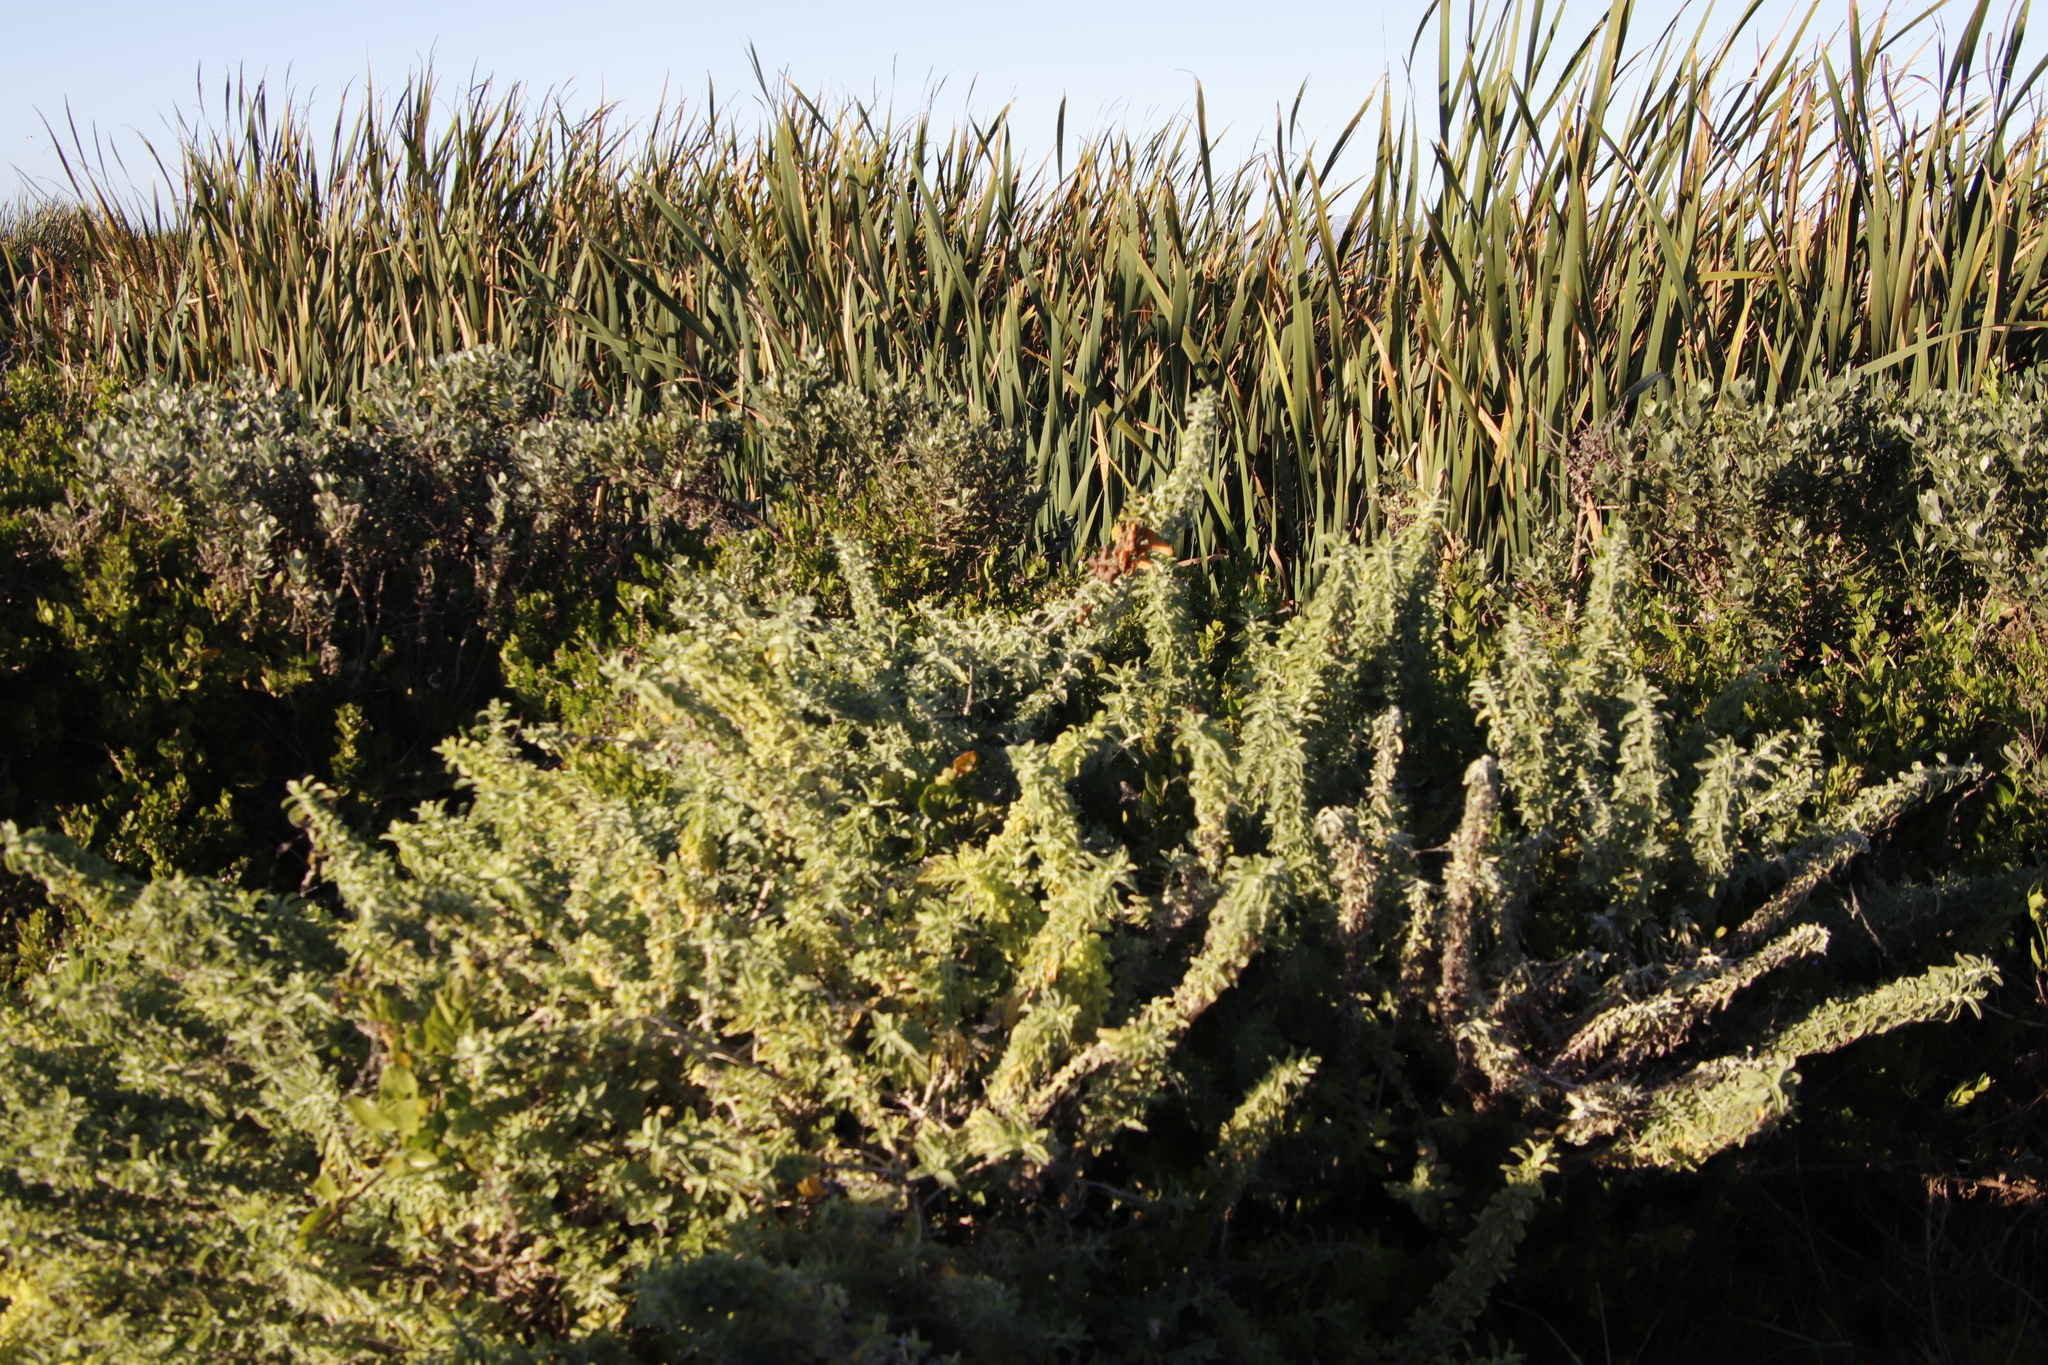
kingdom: Plantae
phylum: Tracheophyta
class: Magnoliopsida
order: Lamiales
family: Lamiaceae
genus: Salvia
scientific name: Salvia aurea
